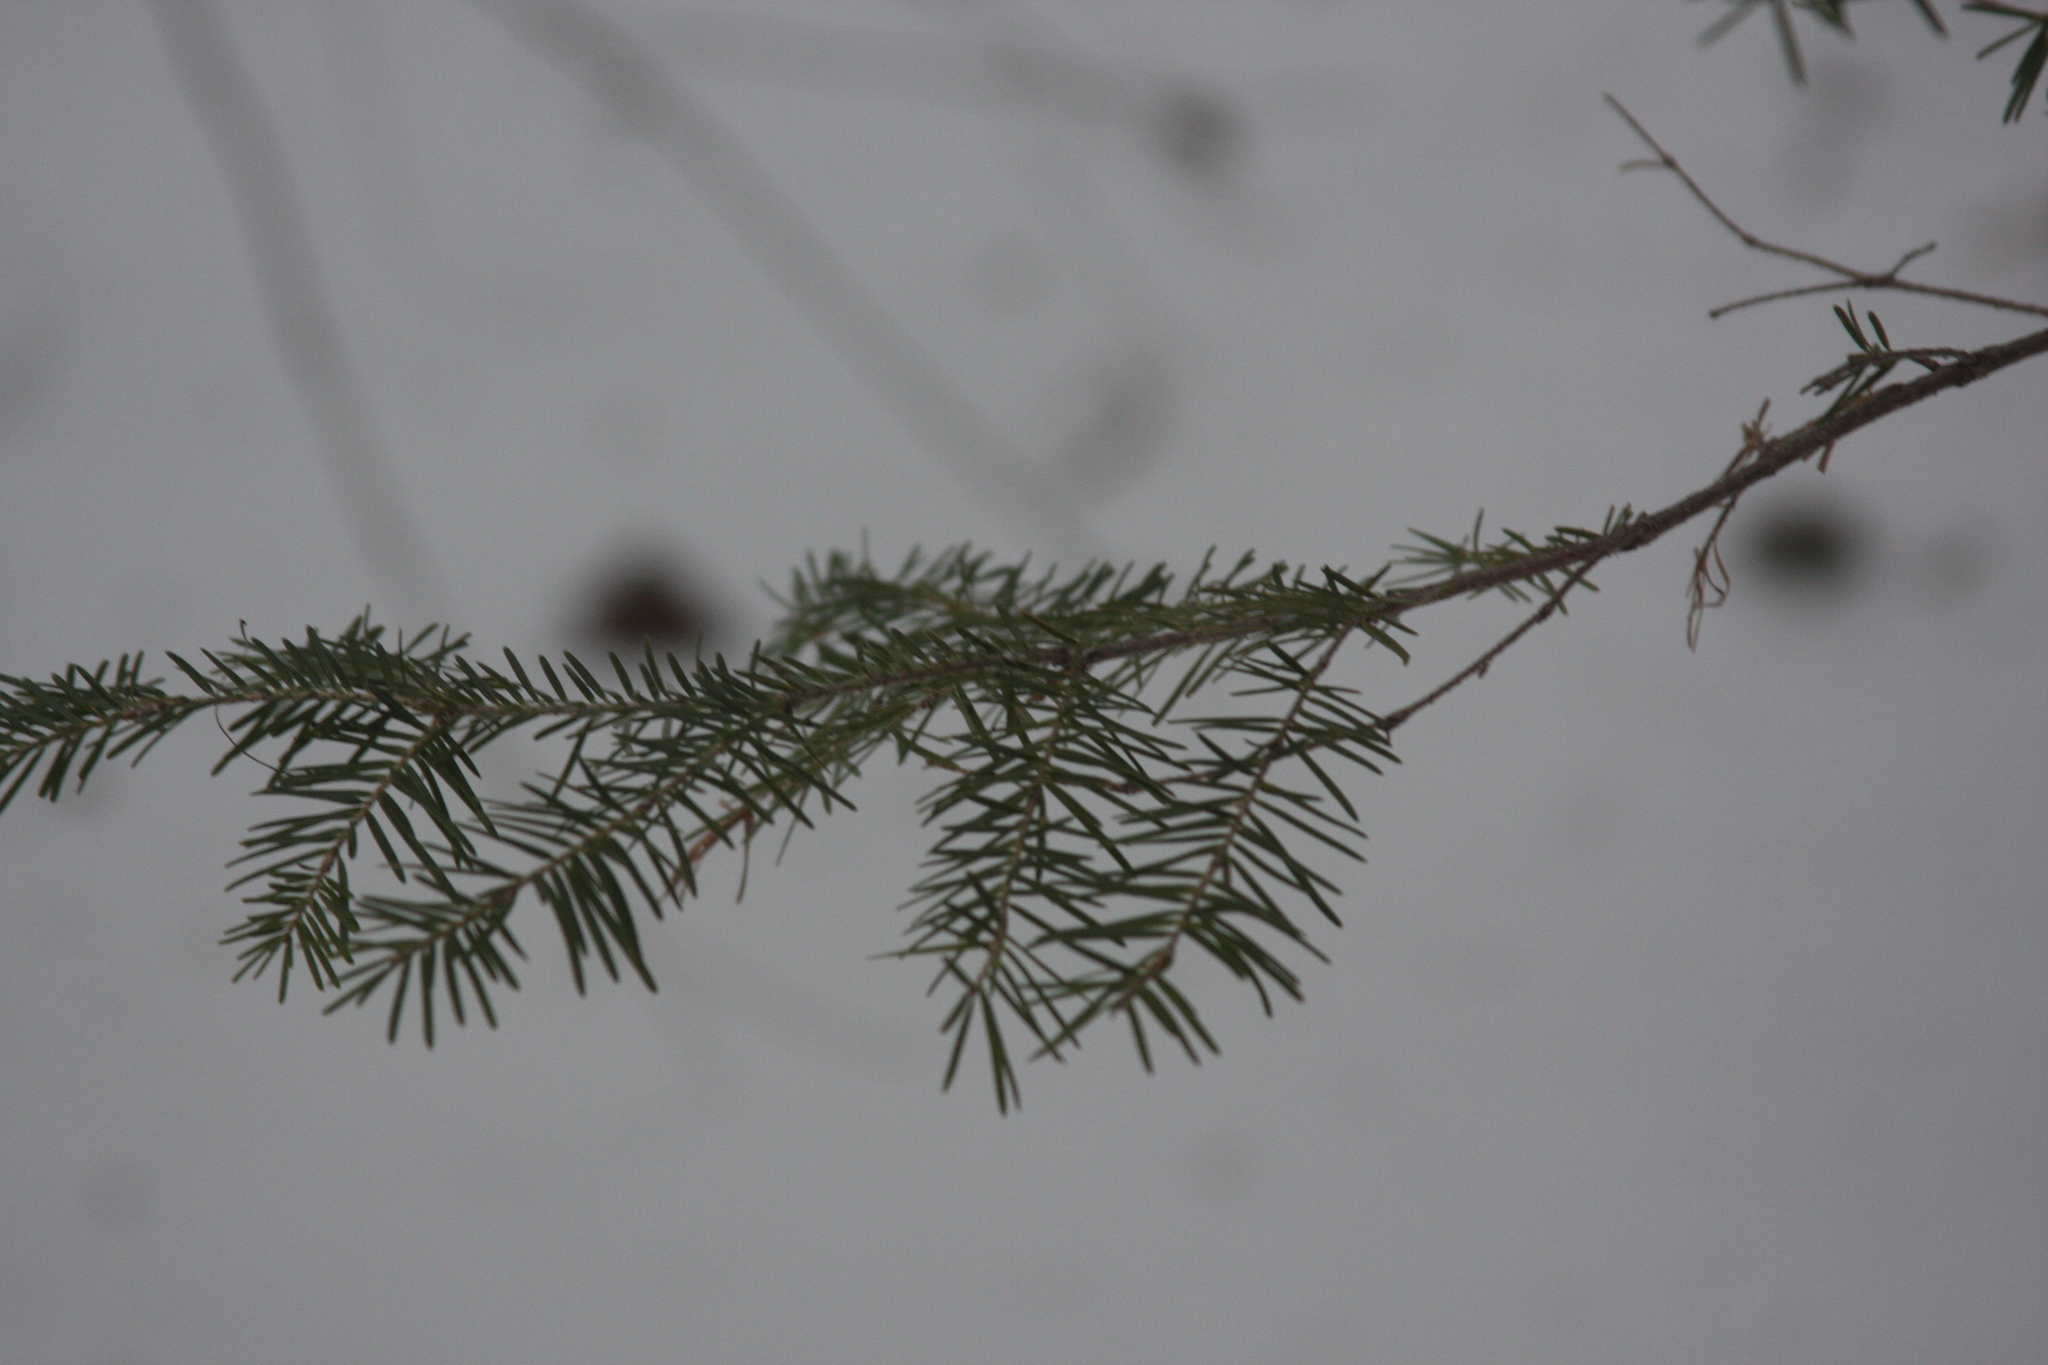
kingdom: Plantae
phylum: Tracheophyta
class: Pinopsida
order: Pinales
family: Pinaceae
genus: Abies
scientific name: Abies balsamea
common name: Balsam fir
